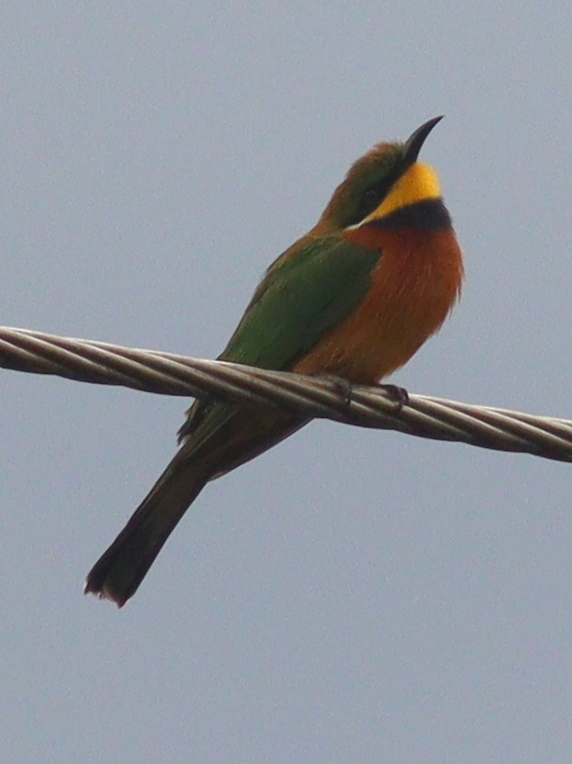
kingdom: Animalia
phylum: Chordata
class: Aves
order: Coraciiformes
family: Meropidae
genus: Merops
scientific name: Merops oreobates
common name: Cinnamon-chested bee-eater
